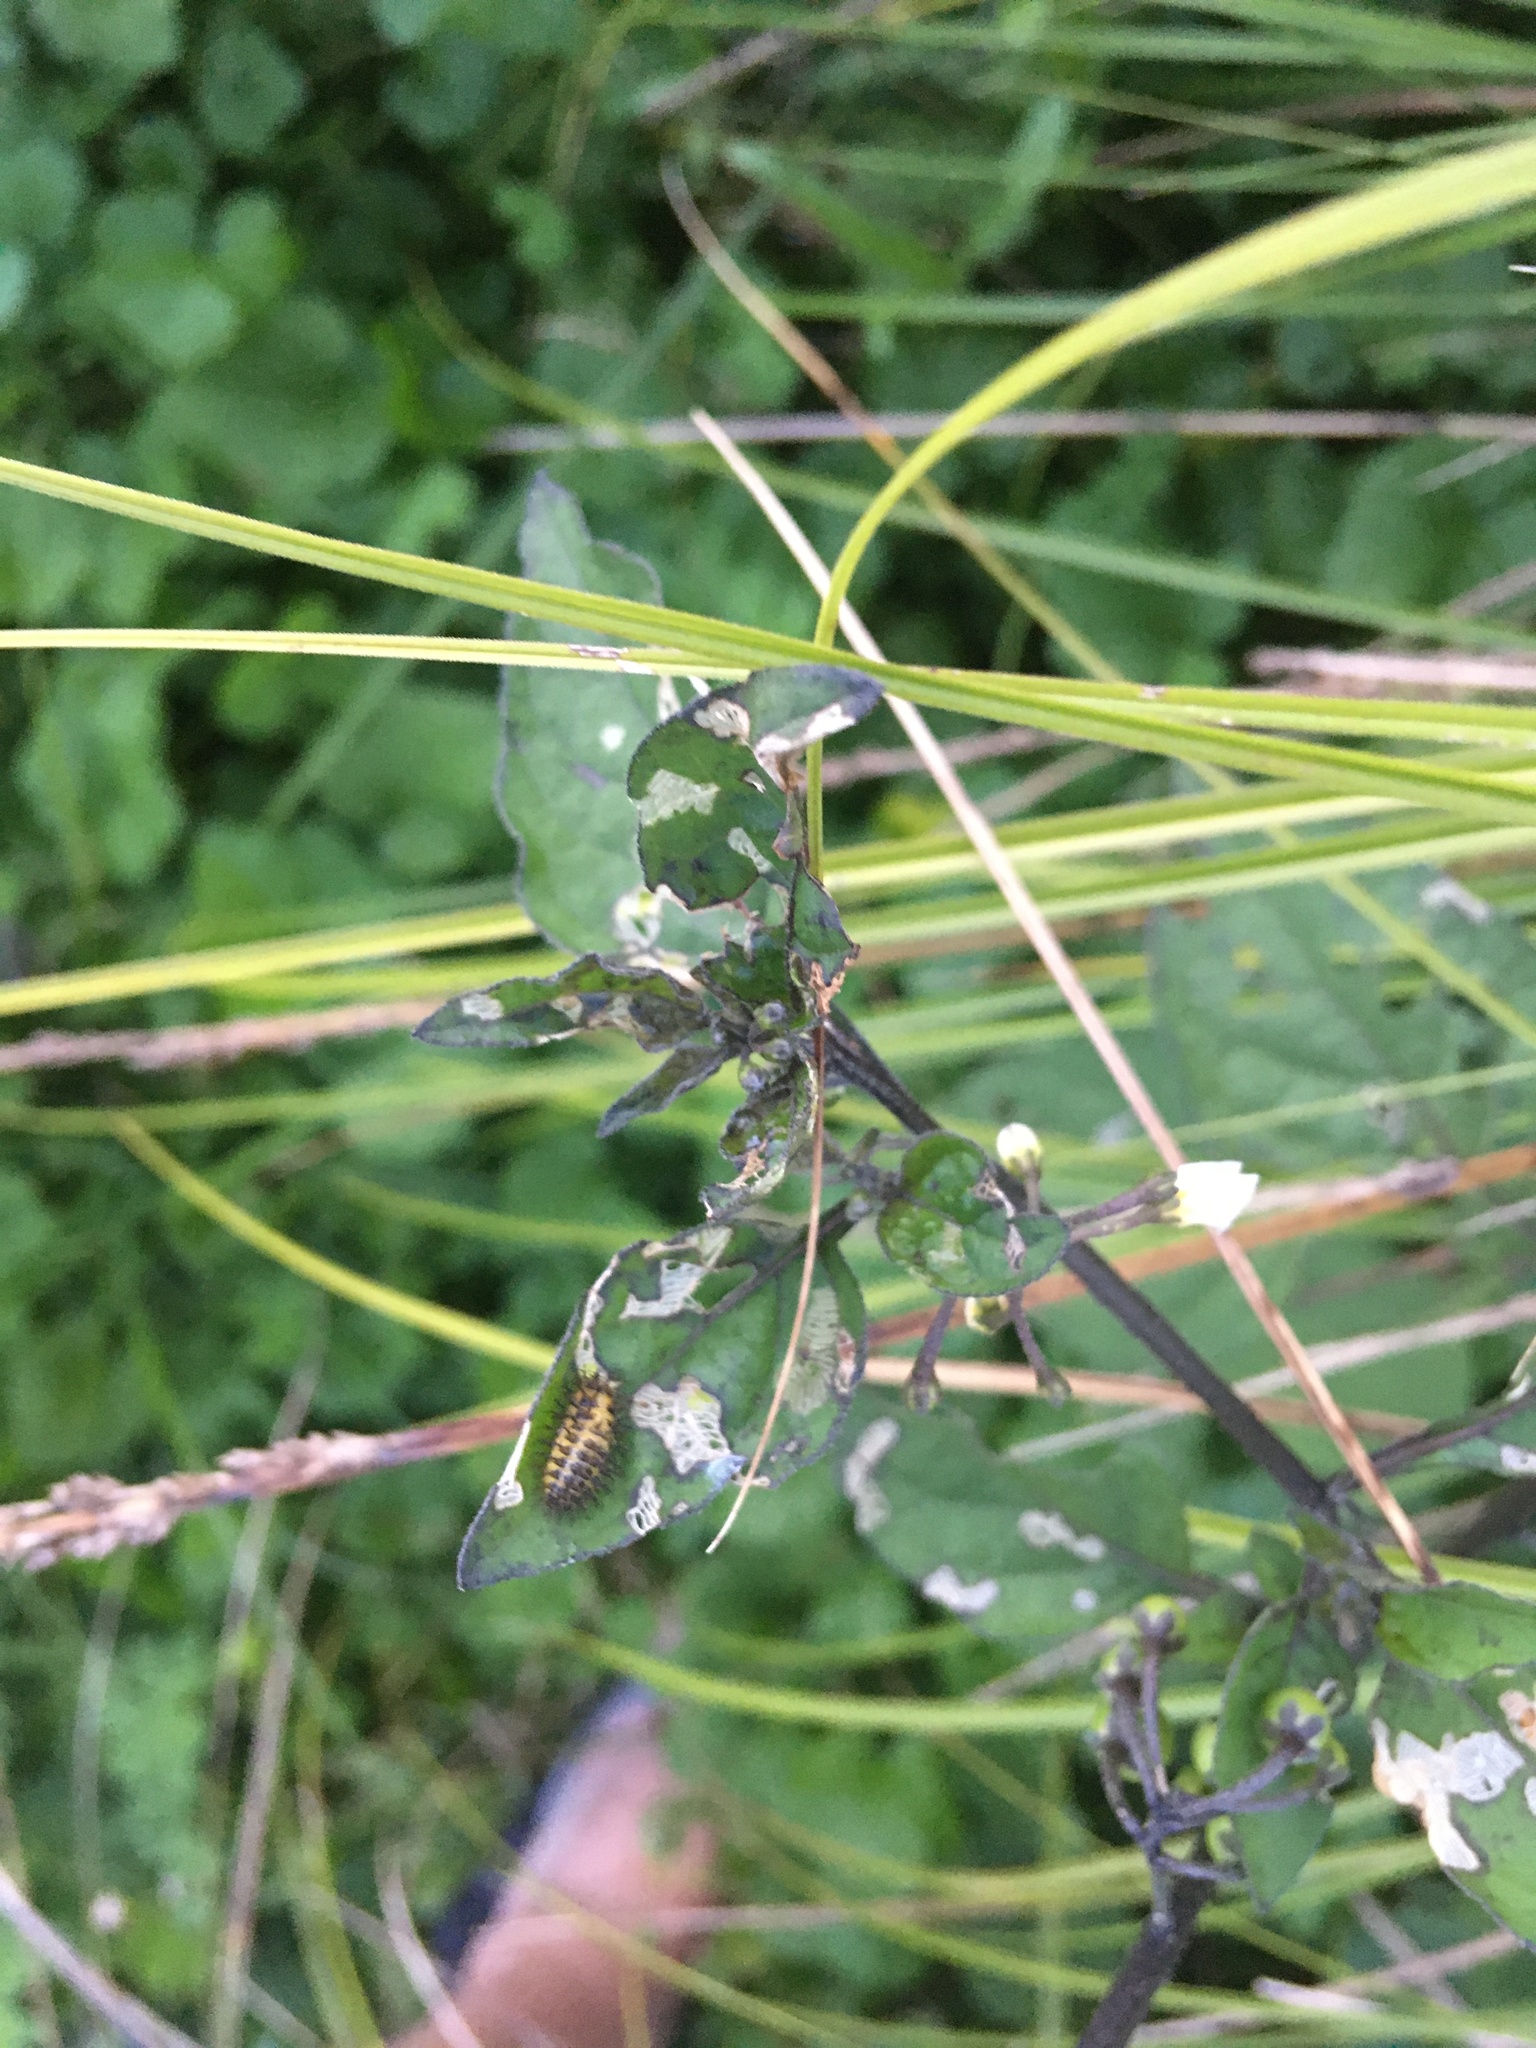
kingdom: Animalia
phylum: Arthropoda
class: Insecta
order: Coleoptera
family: Coccinellidae
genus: Henosepilachna
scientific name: Henosepilachna vigintioctopunctata
